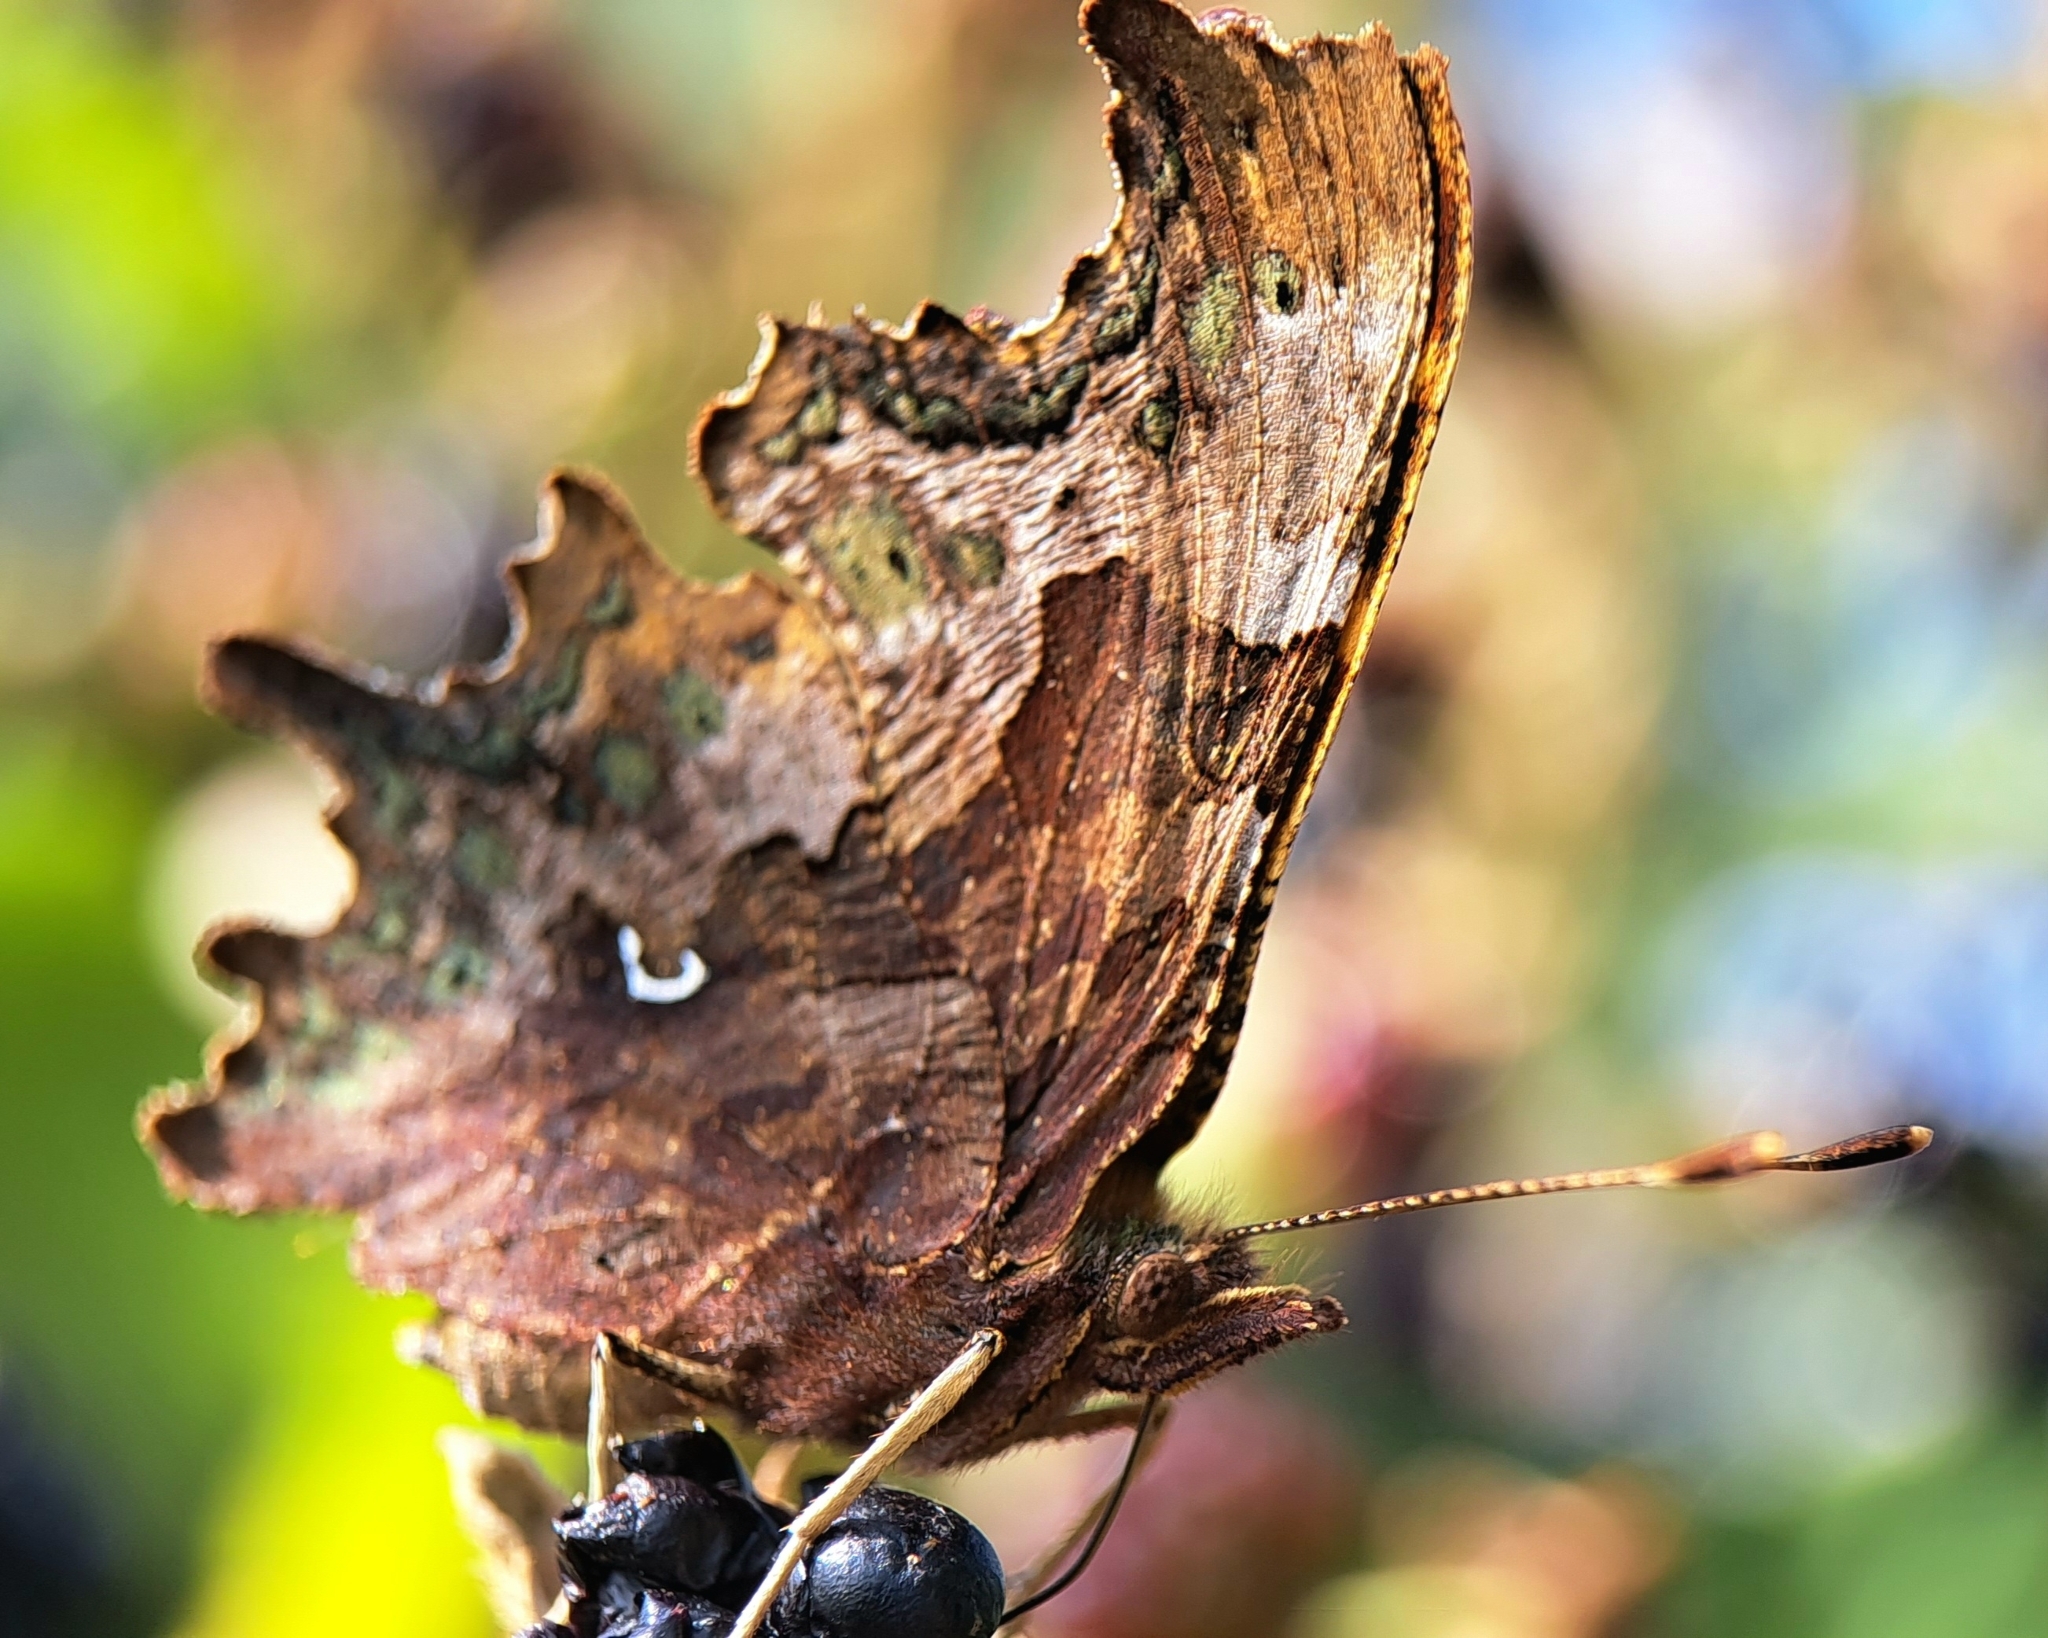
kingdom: Animalia
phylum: Arthropoda
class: Insecta
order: Lepidoptera
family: Nymphalidae
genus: Polygonia
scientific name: Polygonia c-album
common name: Comma
